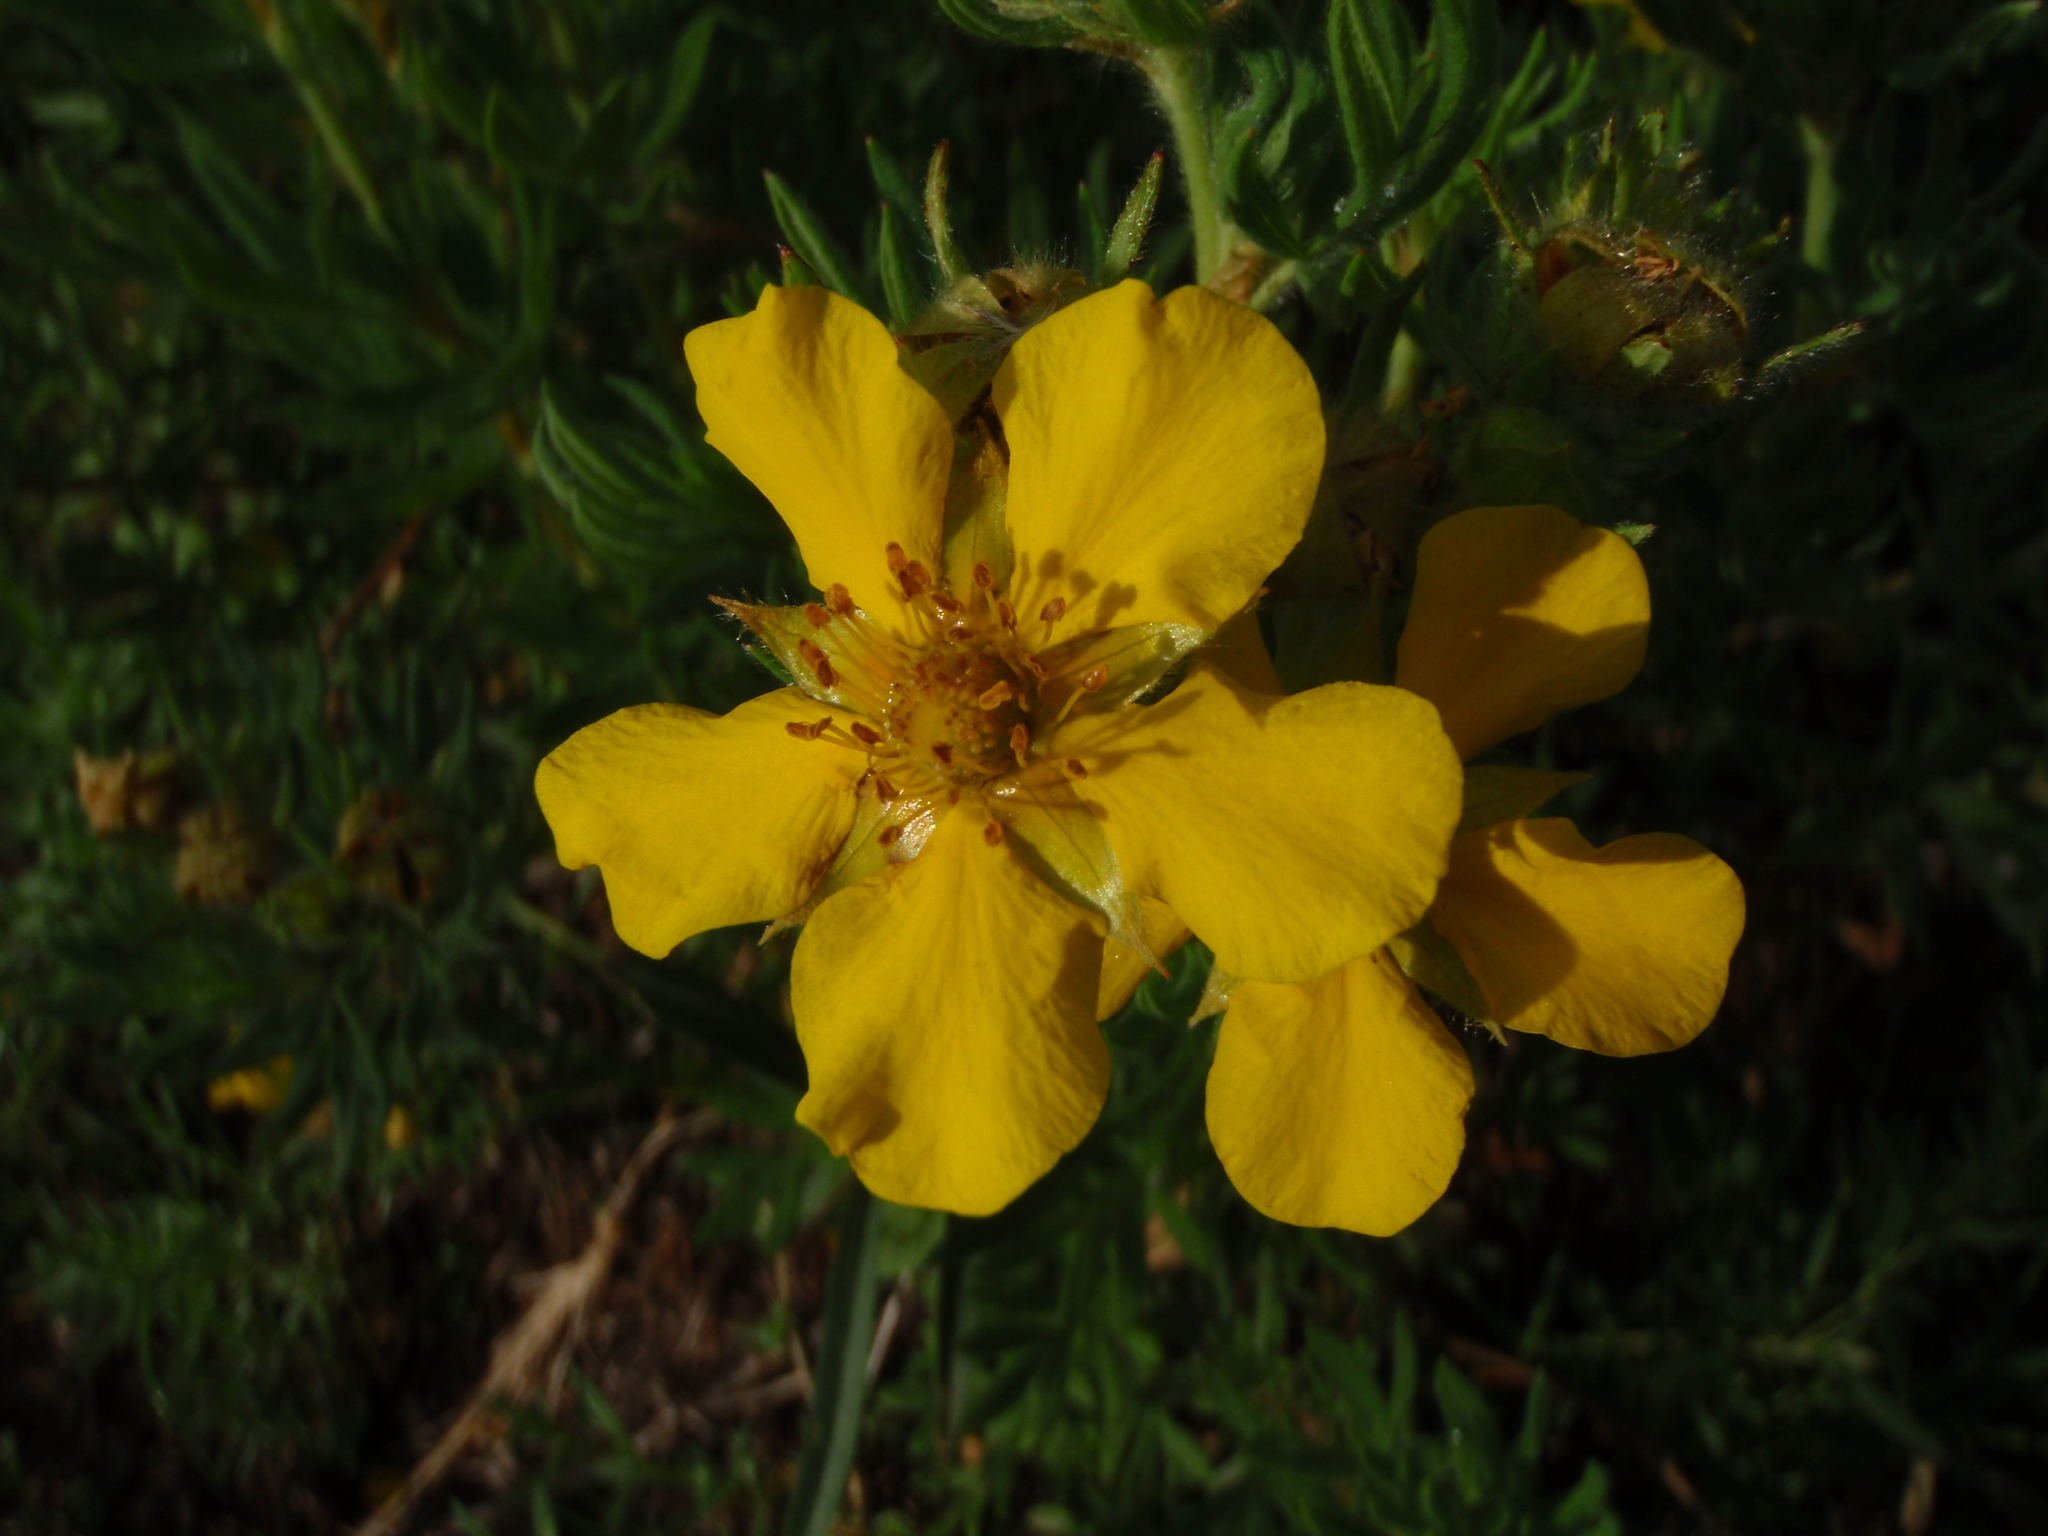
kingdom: Plantae
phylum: Tracheophyta
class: Magnoliopsida
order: Rosales
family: Rosaceae
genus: Dasiphora
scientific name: Dasiphora fruticosa
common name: Shrubby cinquefoil
